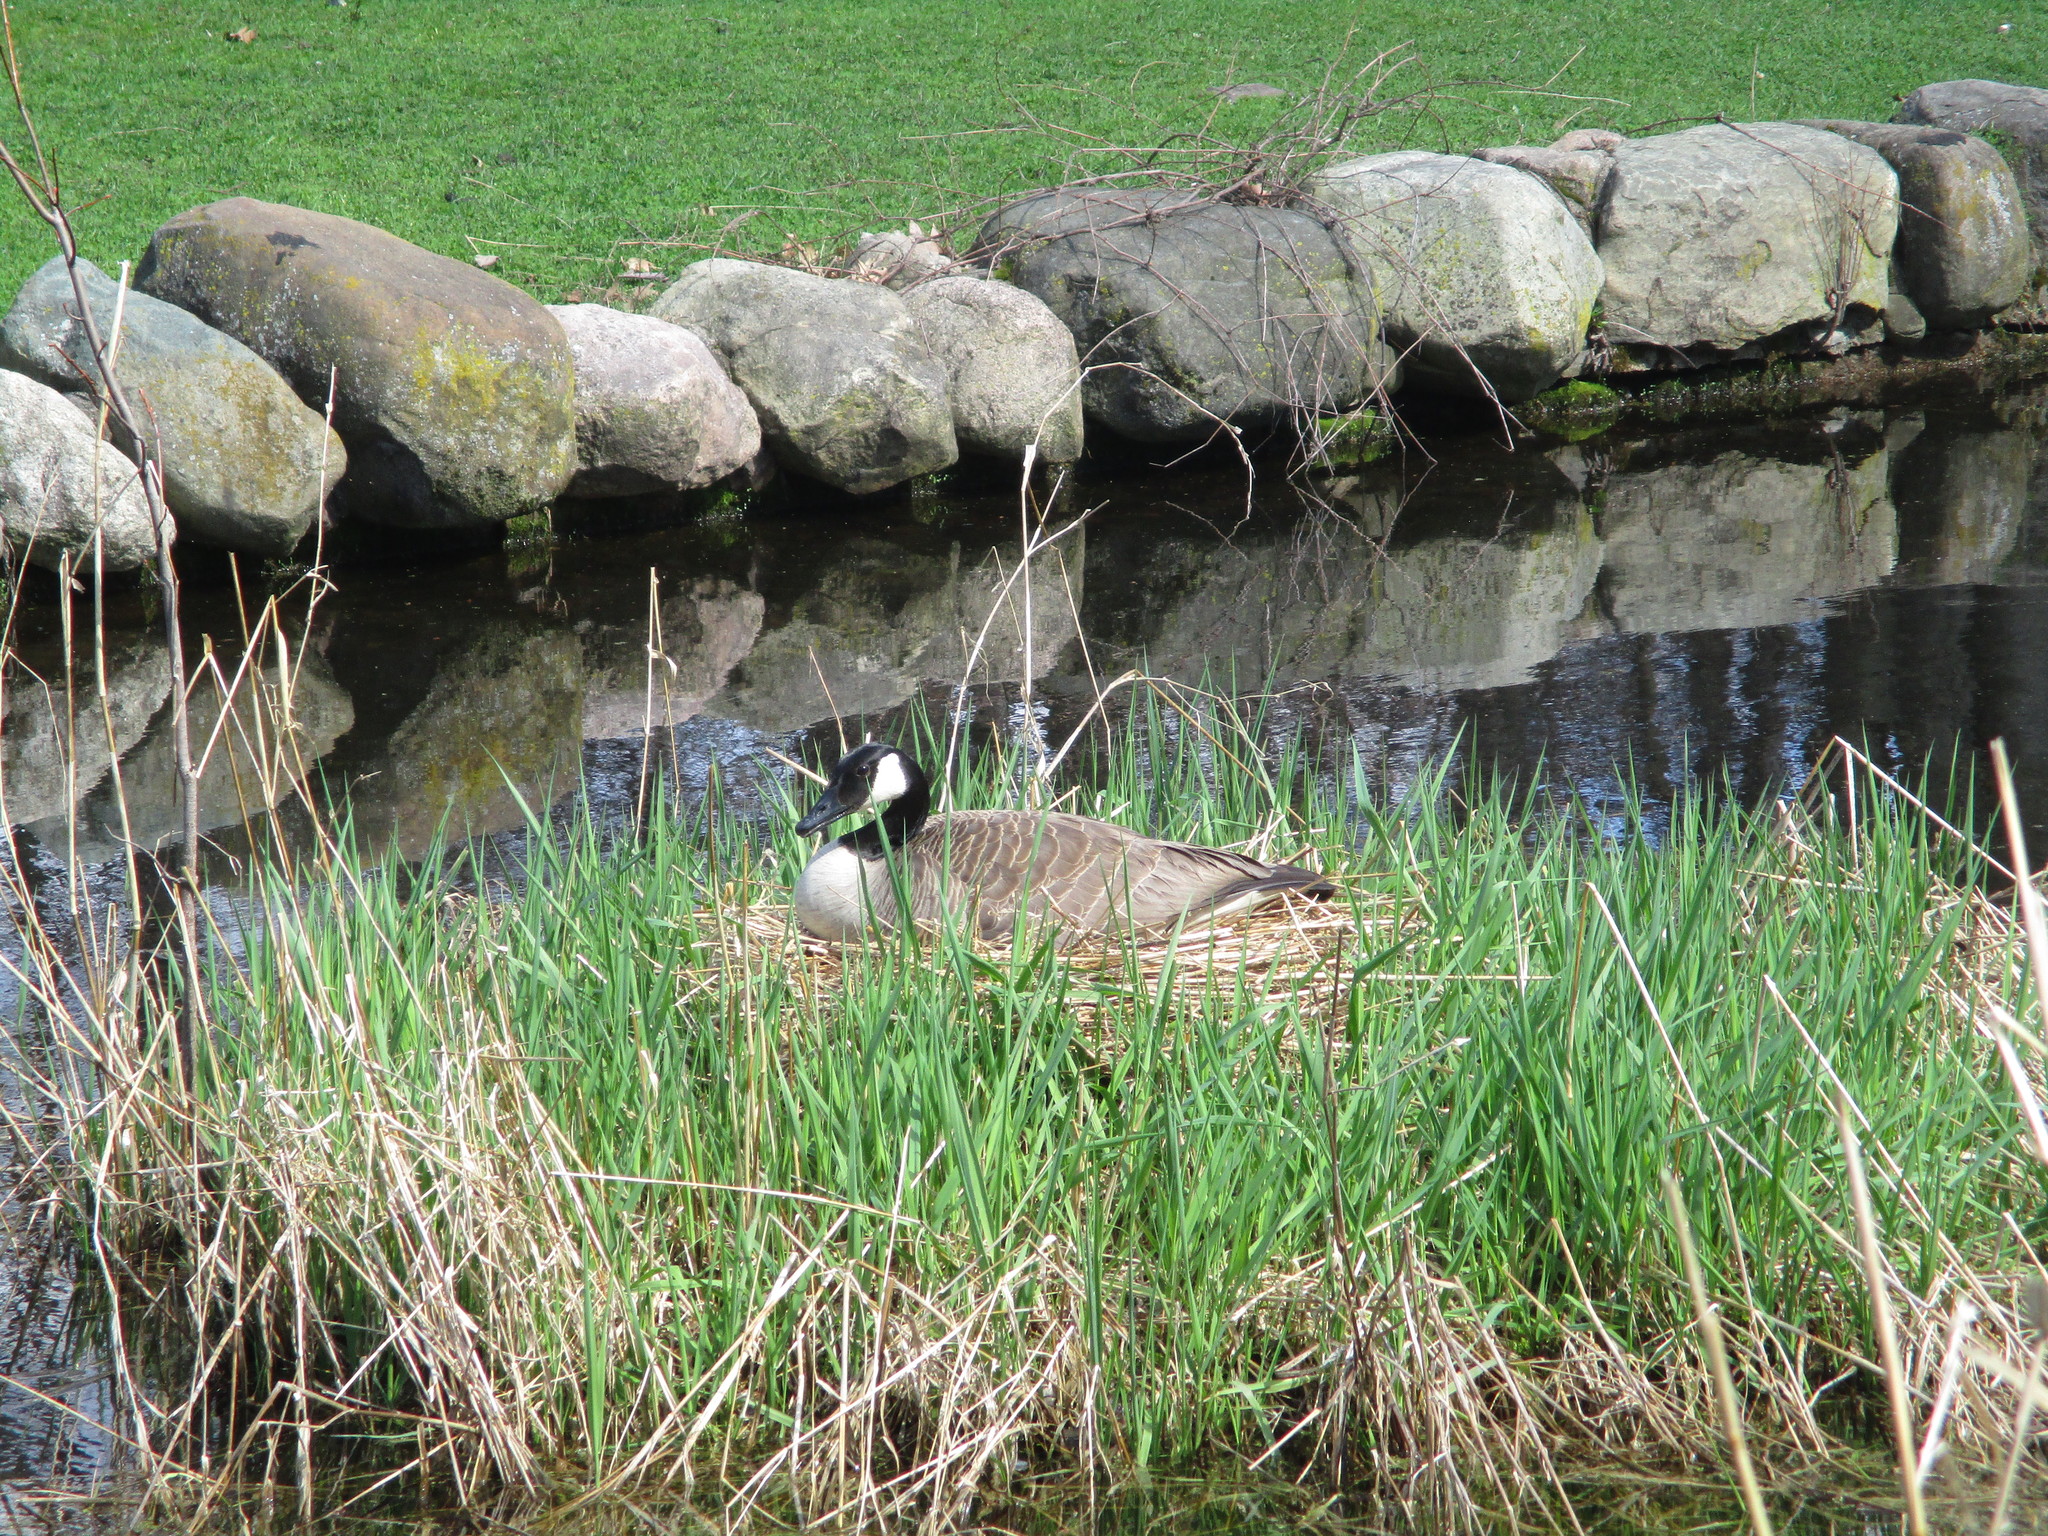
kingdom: Animalia
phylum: Chordata
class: Aves
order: Anseriformes
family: Anatidae
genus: Branta
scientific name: Branta canadensis
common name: Canada goose
